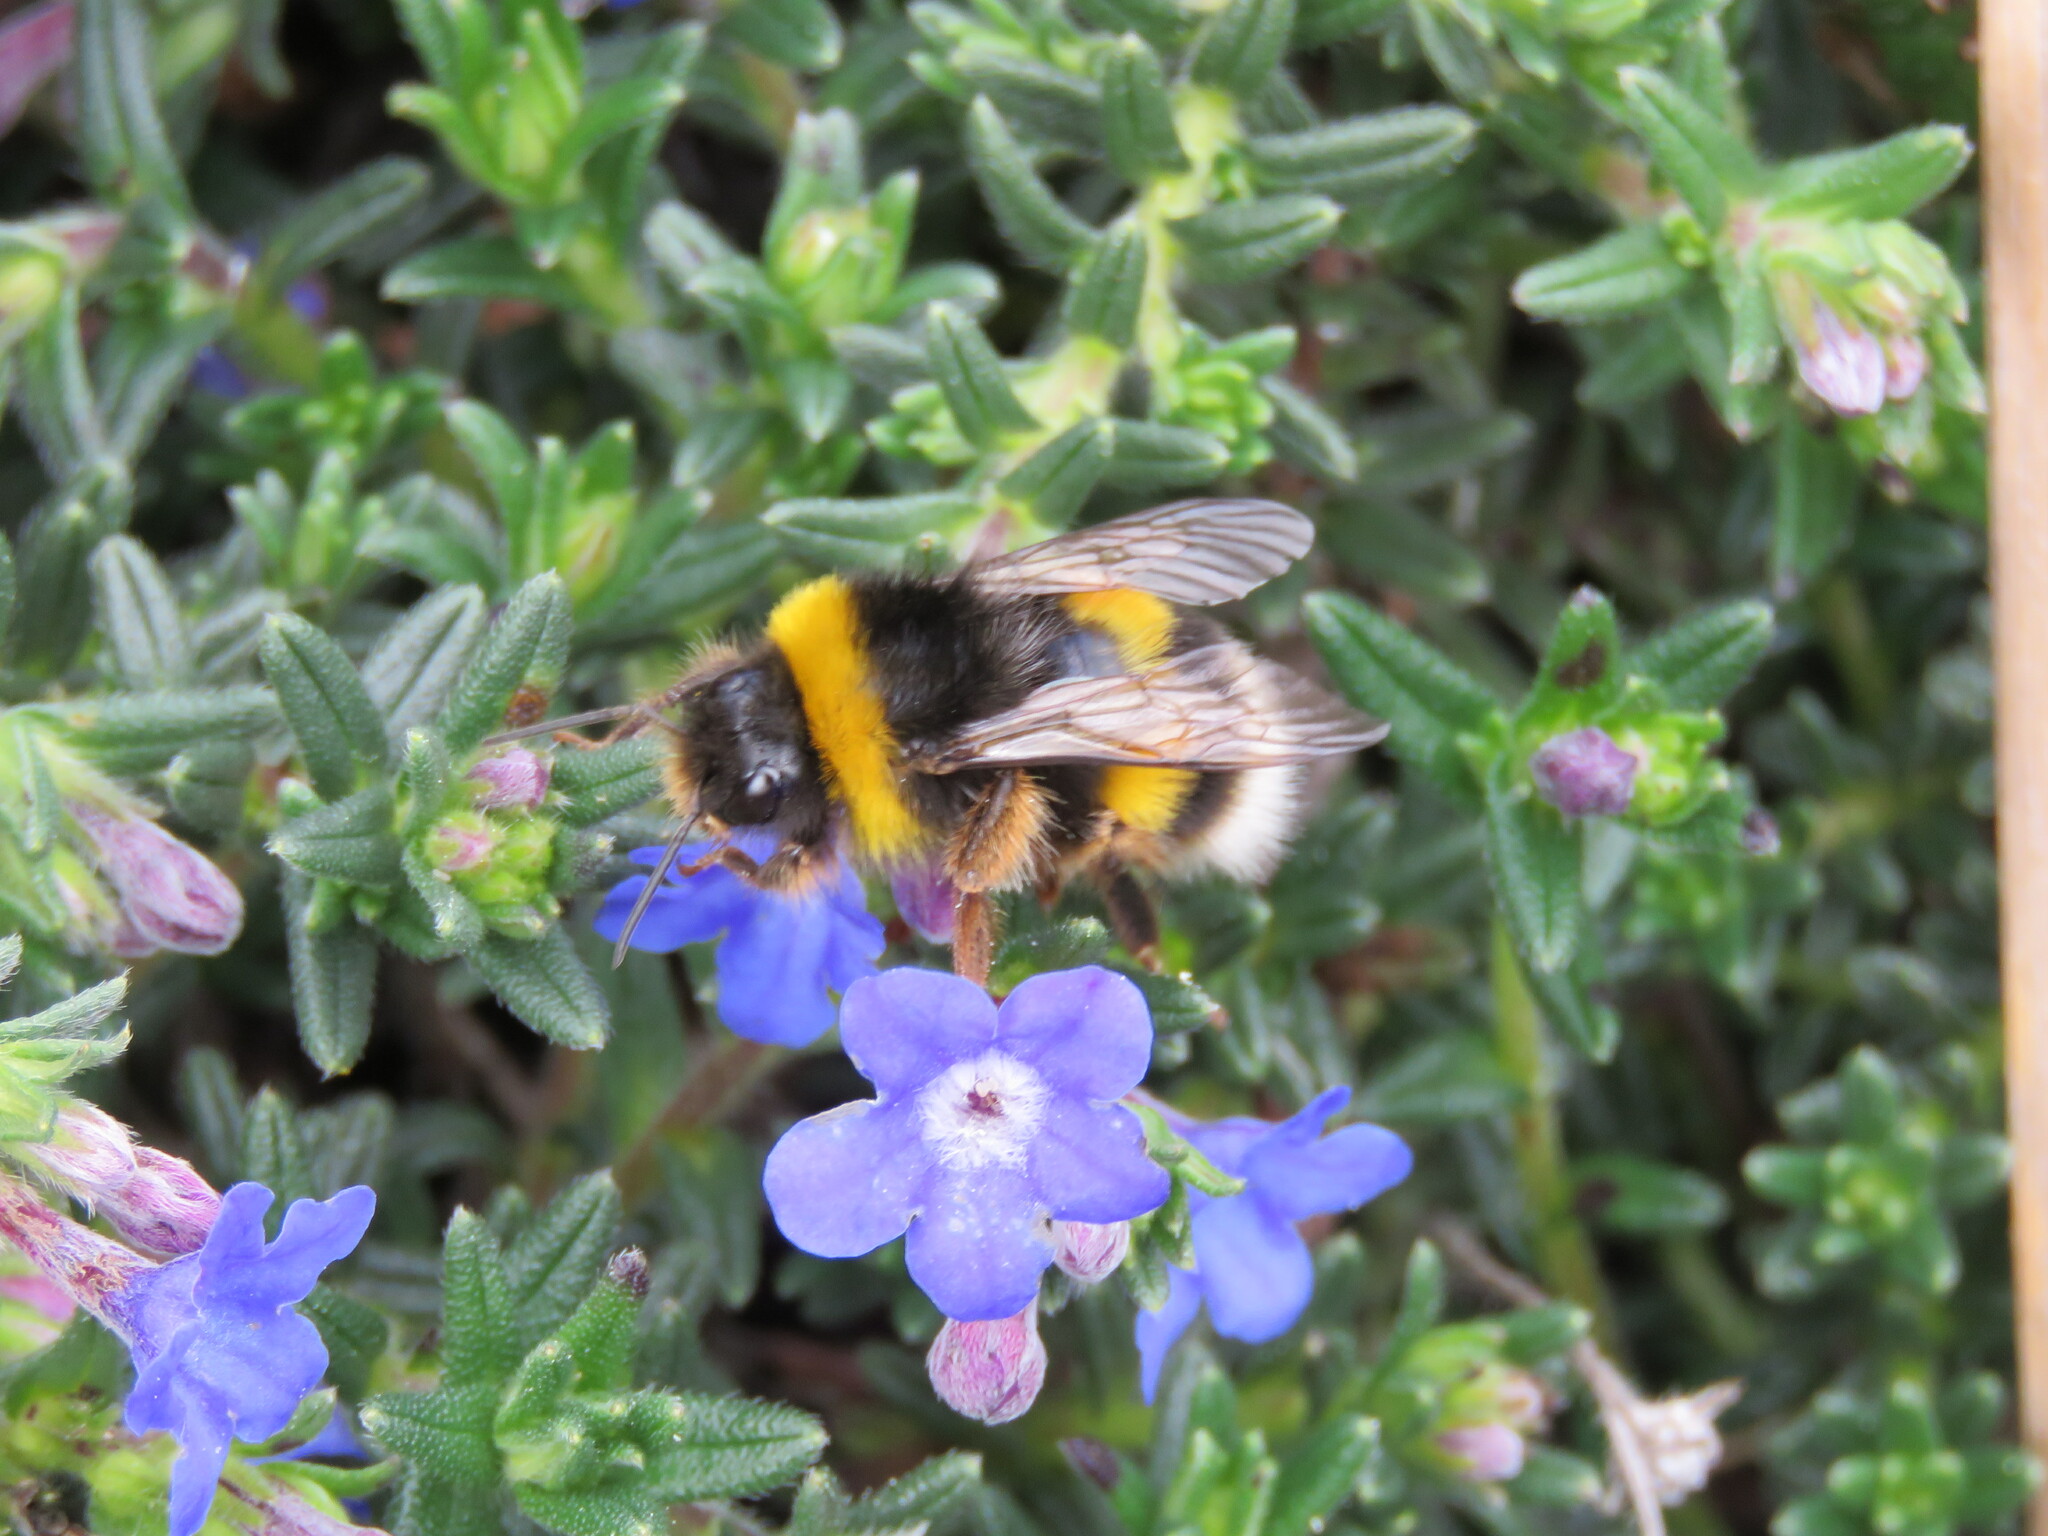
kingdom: Animalia
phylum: Arthropoda
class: Insecta
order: Hymenoptera
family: Apidae
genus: Bombus
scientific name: Bombus terrestris
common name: Buff-tailed bumblebee
